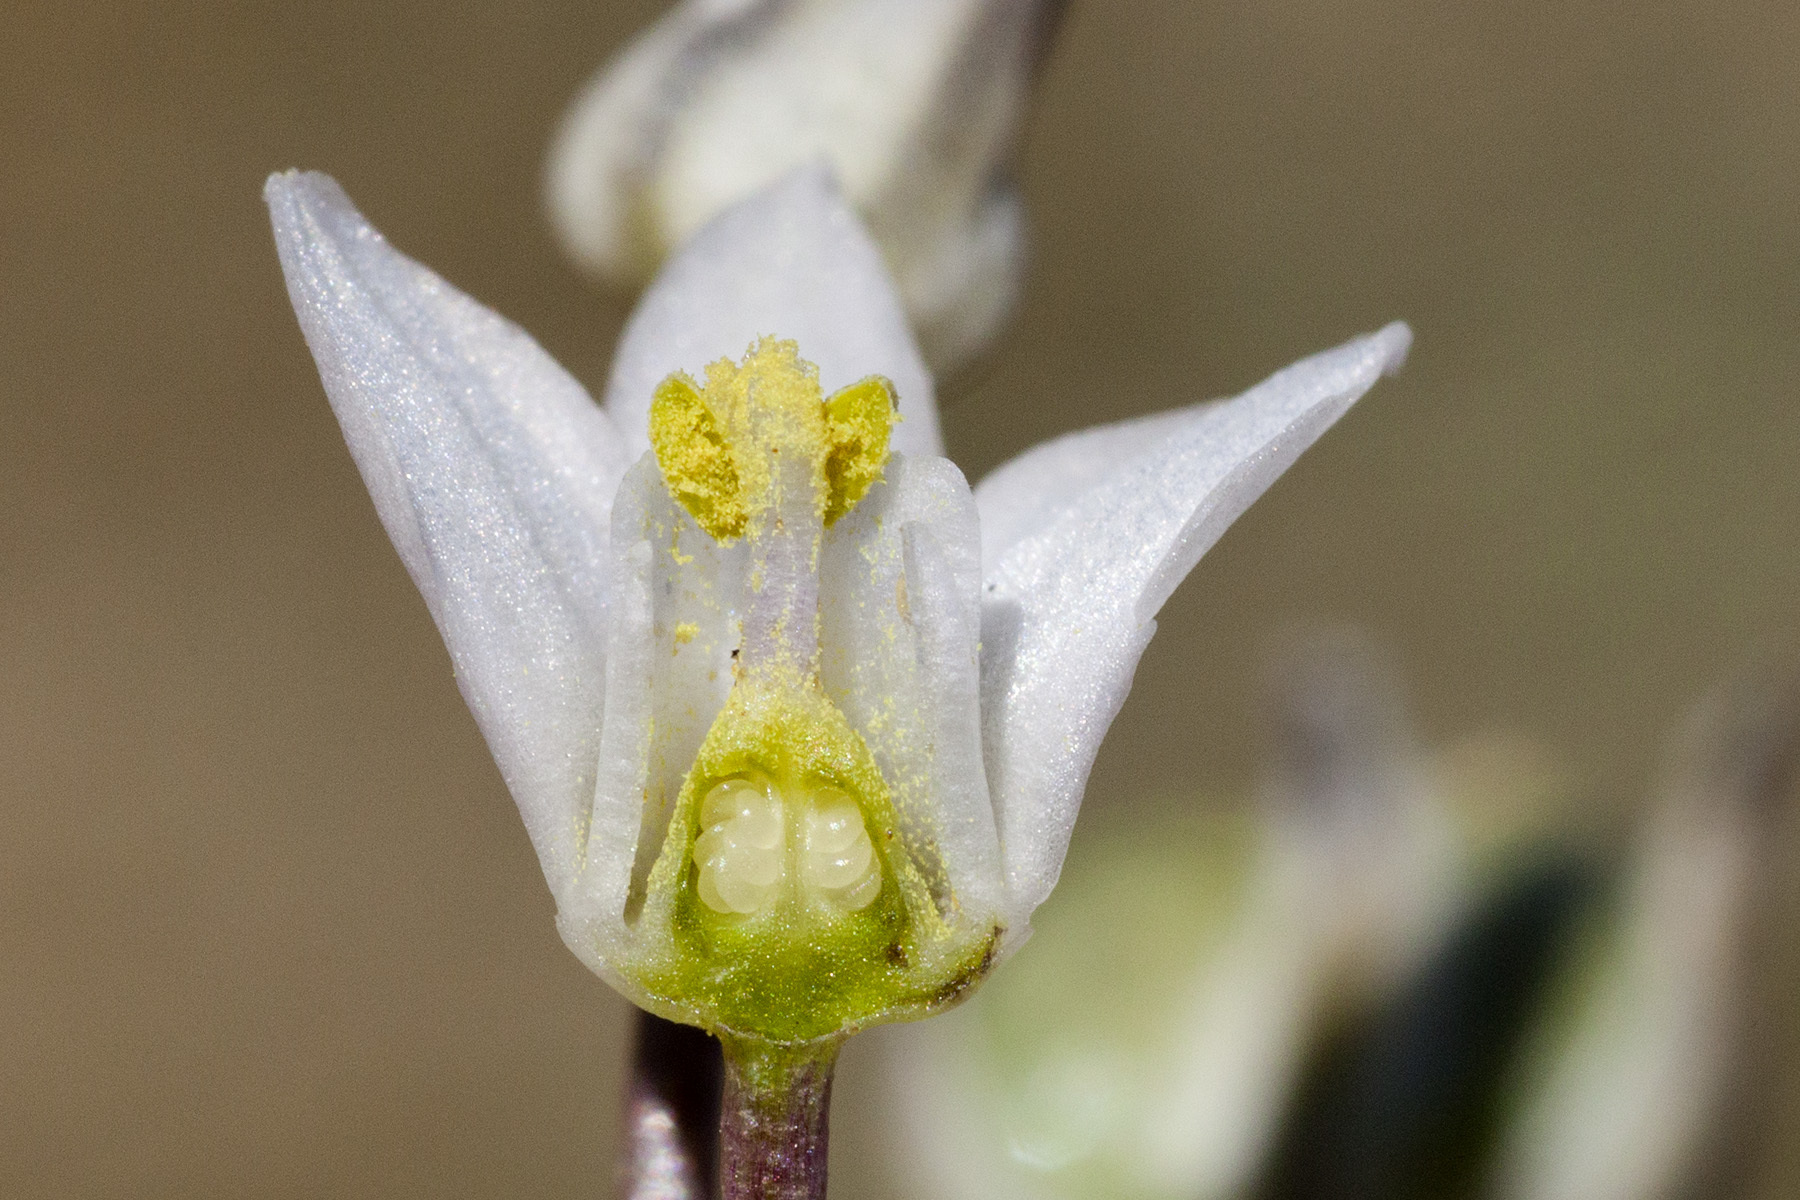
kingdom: Plantae
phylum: Tracheophyta
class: Liliopsida
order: Asparagales
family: Asparagaceae
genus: Muilla
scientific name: Muilla lordsburgana
